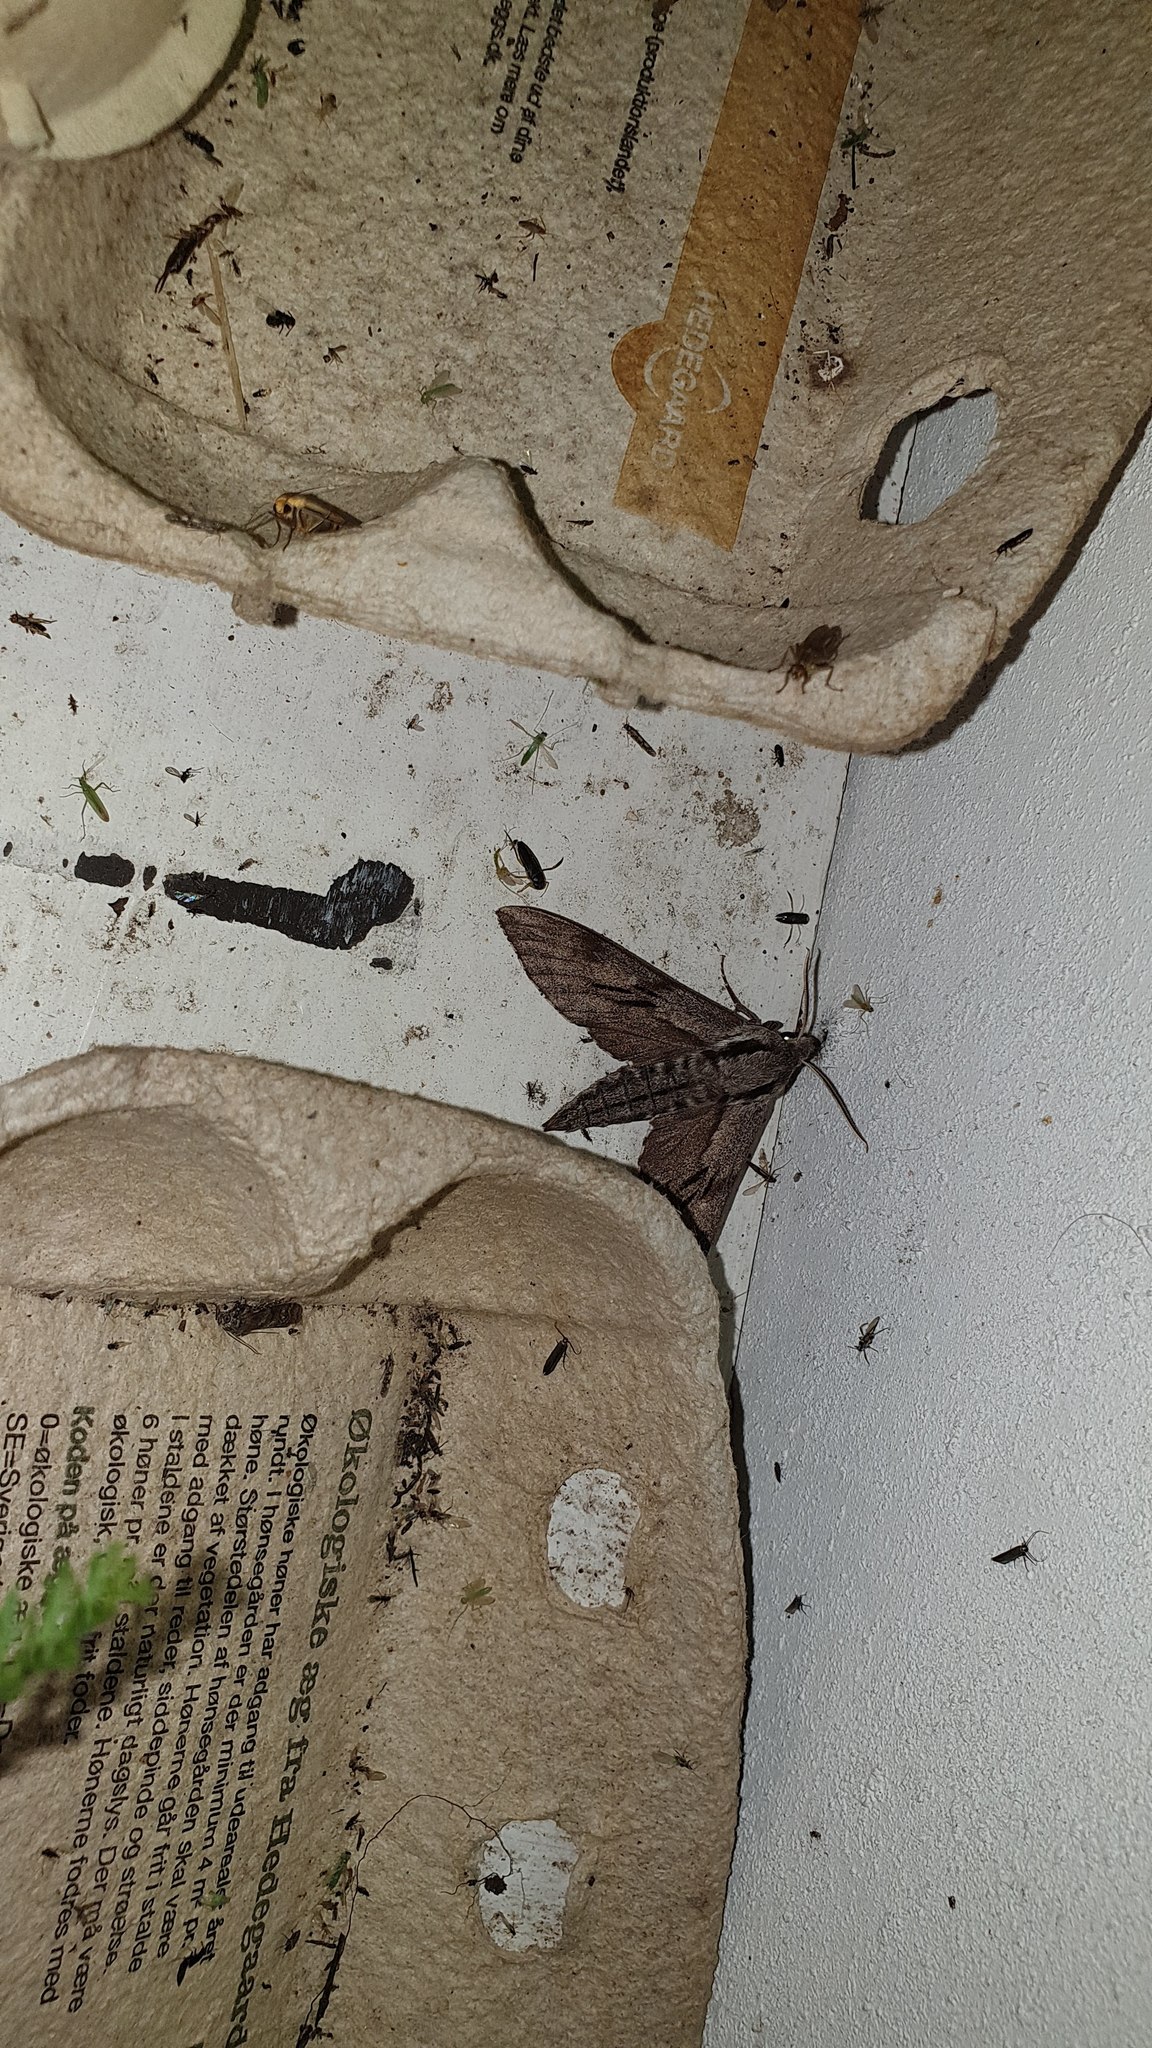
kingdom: Animalia
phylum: Arthropoda
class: Insecta
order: Lepidoptera
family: Sphingidae
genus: Sphinx
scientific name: Sphinx pinastri
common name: Pine hawk-moth
